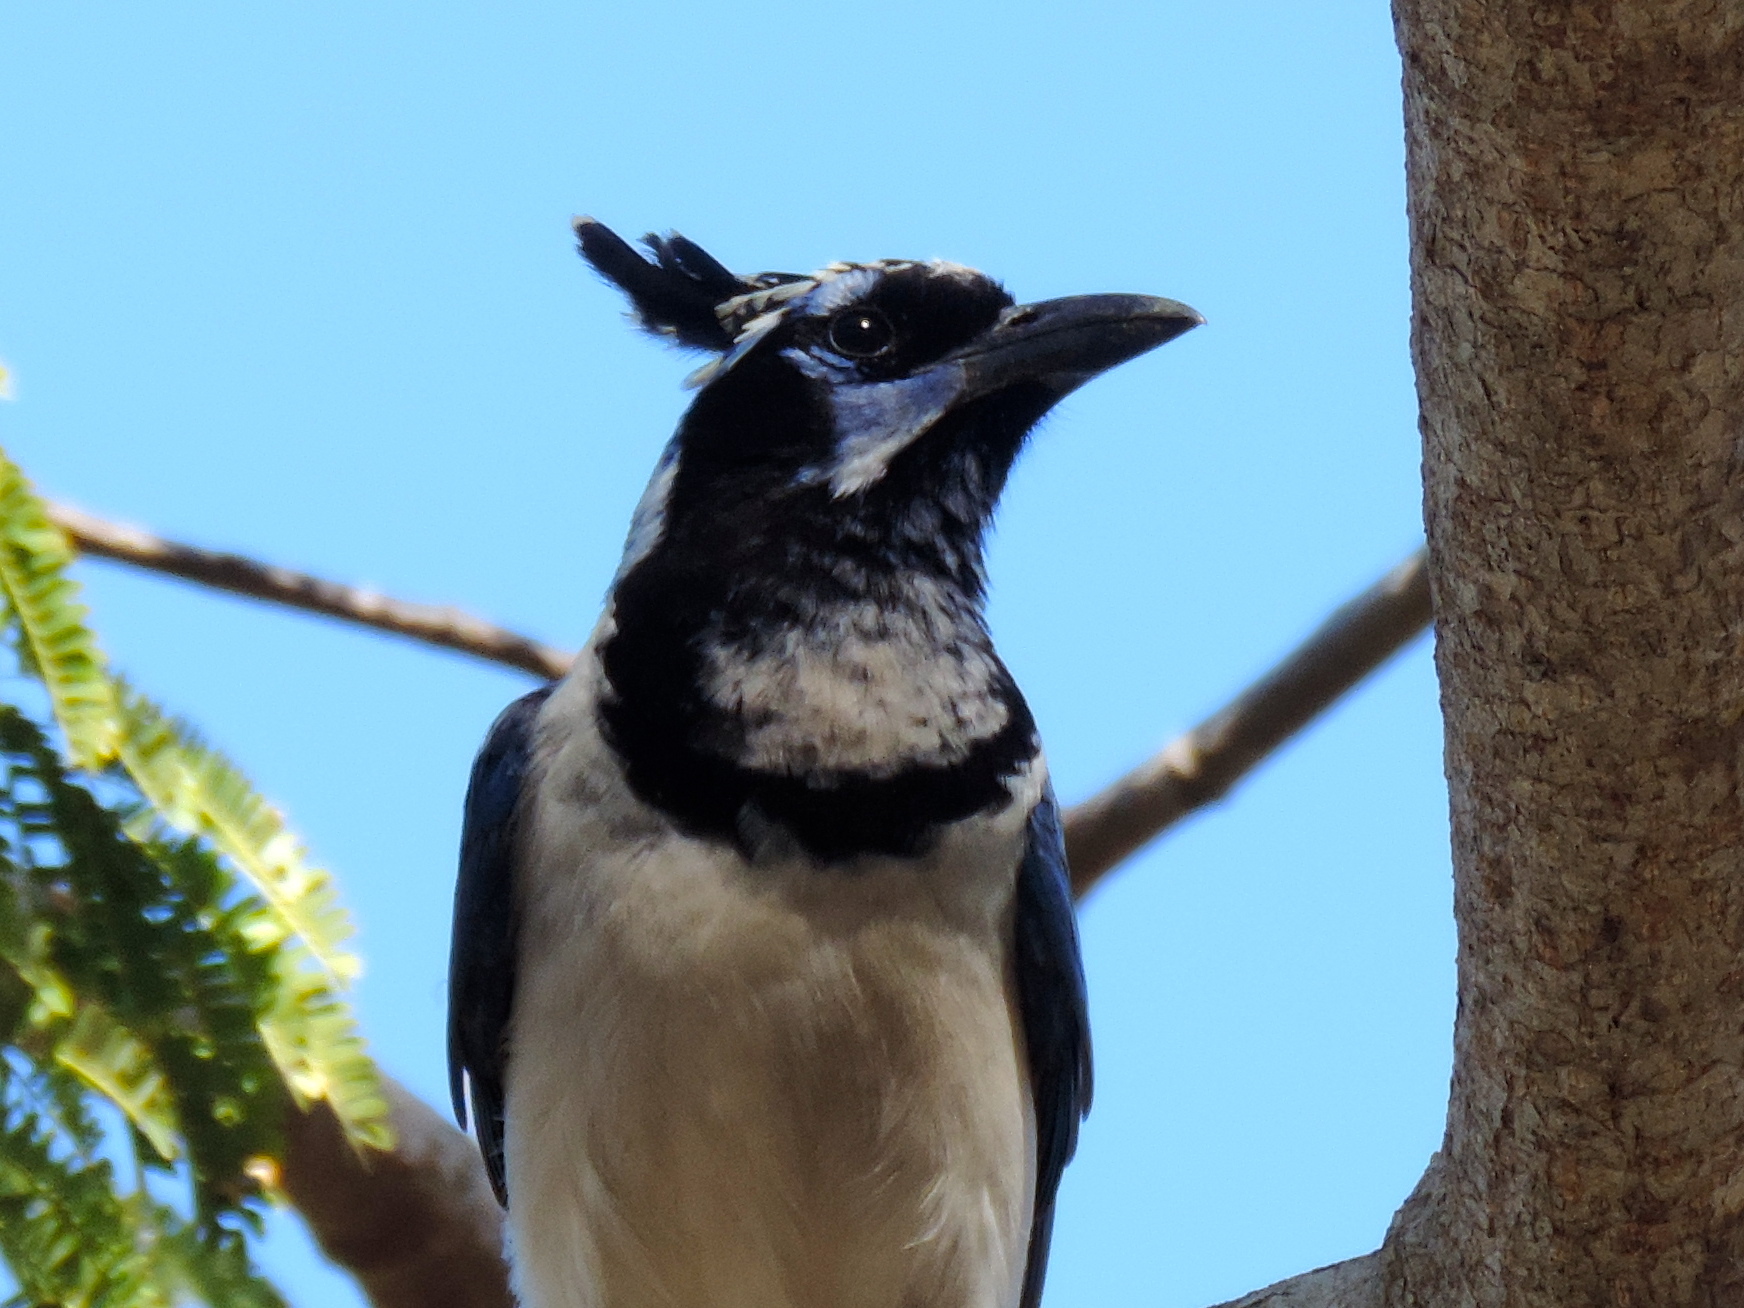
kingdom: Animalia
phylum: Chordata
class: Aves
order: Passeriformes
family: Corvidae
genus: Calocitta
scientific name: Calocitta colliei
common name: Black-throated magpie-jay
